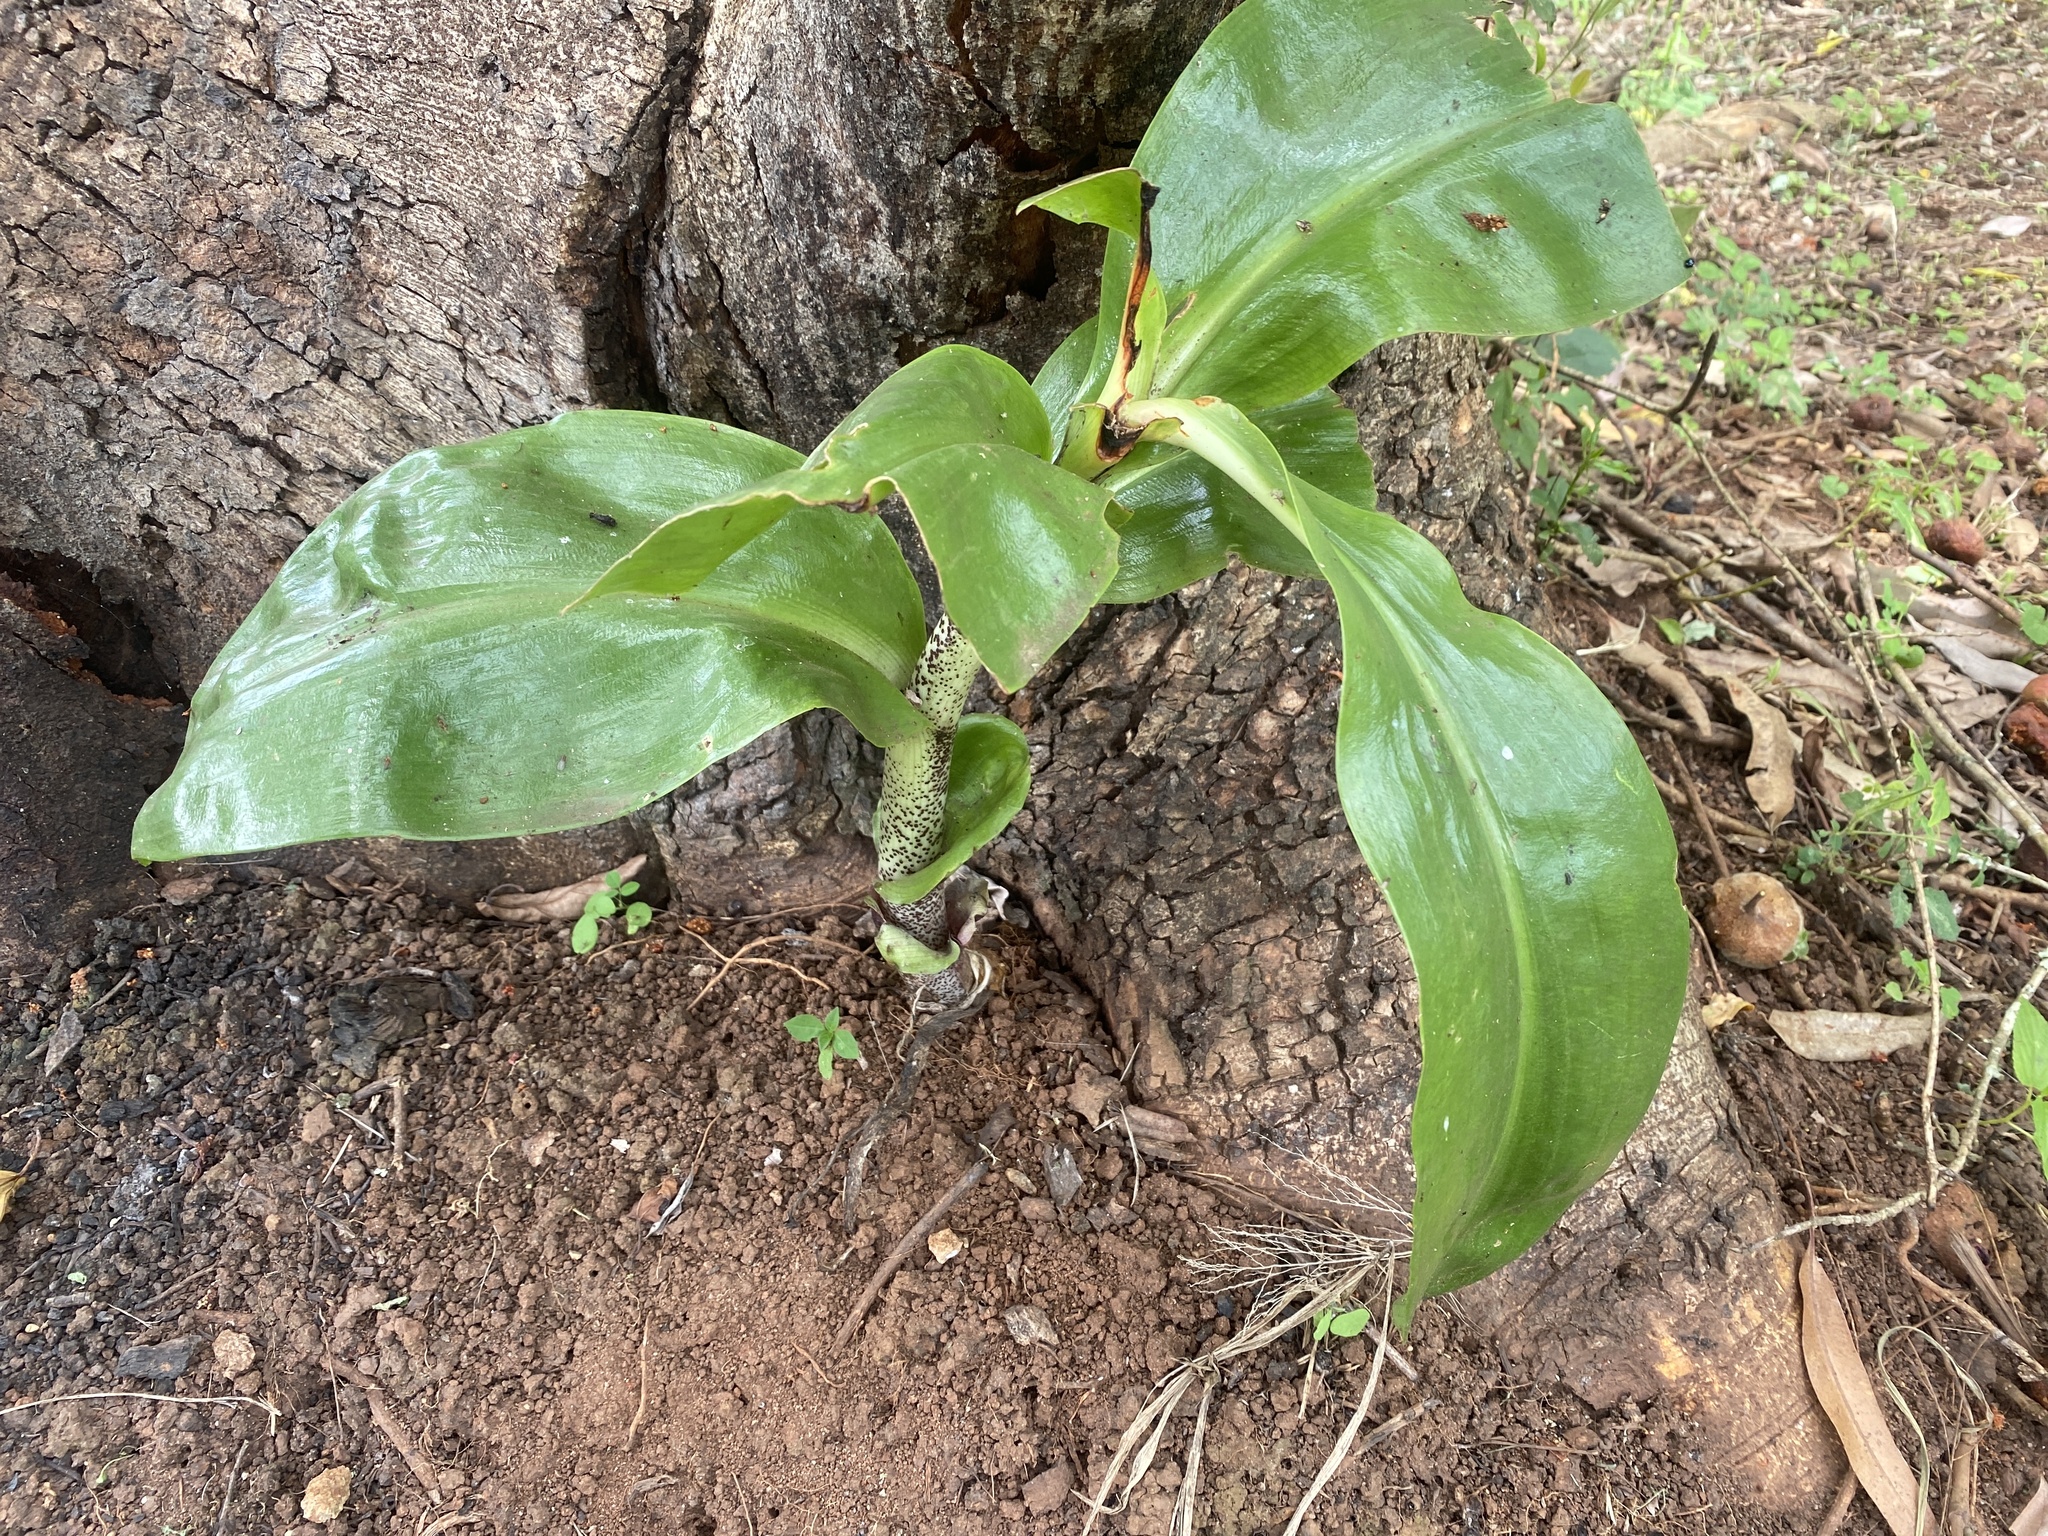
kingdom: Plantae
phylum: Tracheophyta
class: Liliopsida
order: Asparagales
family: Amaryllidaceae
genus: Scadoxus
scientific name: Scadoxus puniceus
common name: Royal-paintbrush
